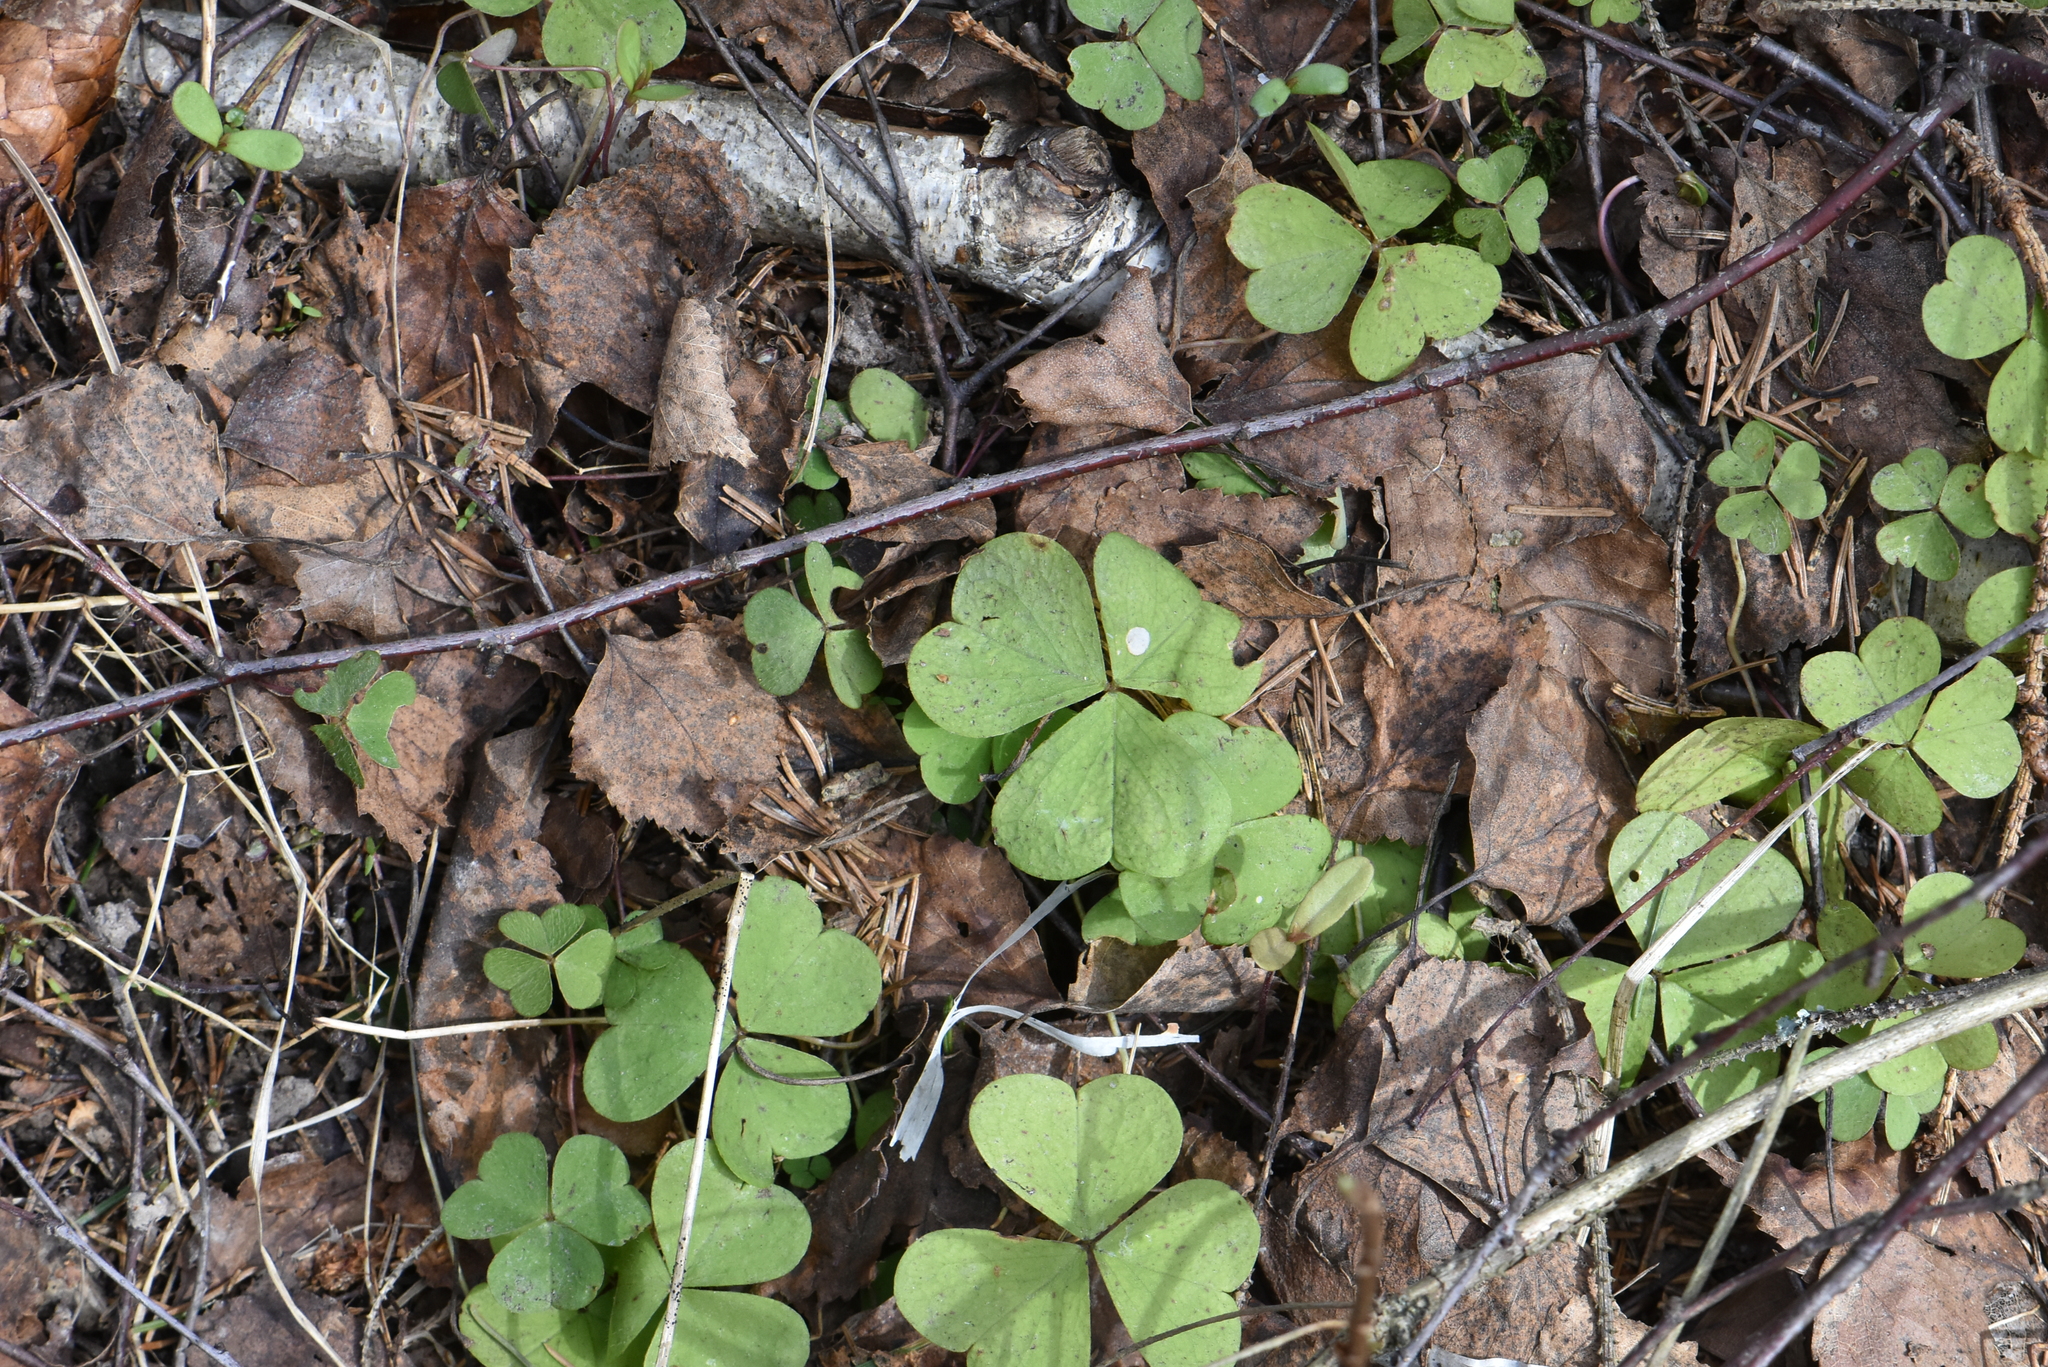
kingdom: Plantae
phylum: Tracheophyta
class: Magnoliopsida
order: Oxalidales
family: Oxalidaceae
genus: Oxalis
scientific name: Oxalis acetosella
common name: Wood-sorrel
